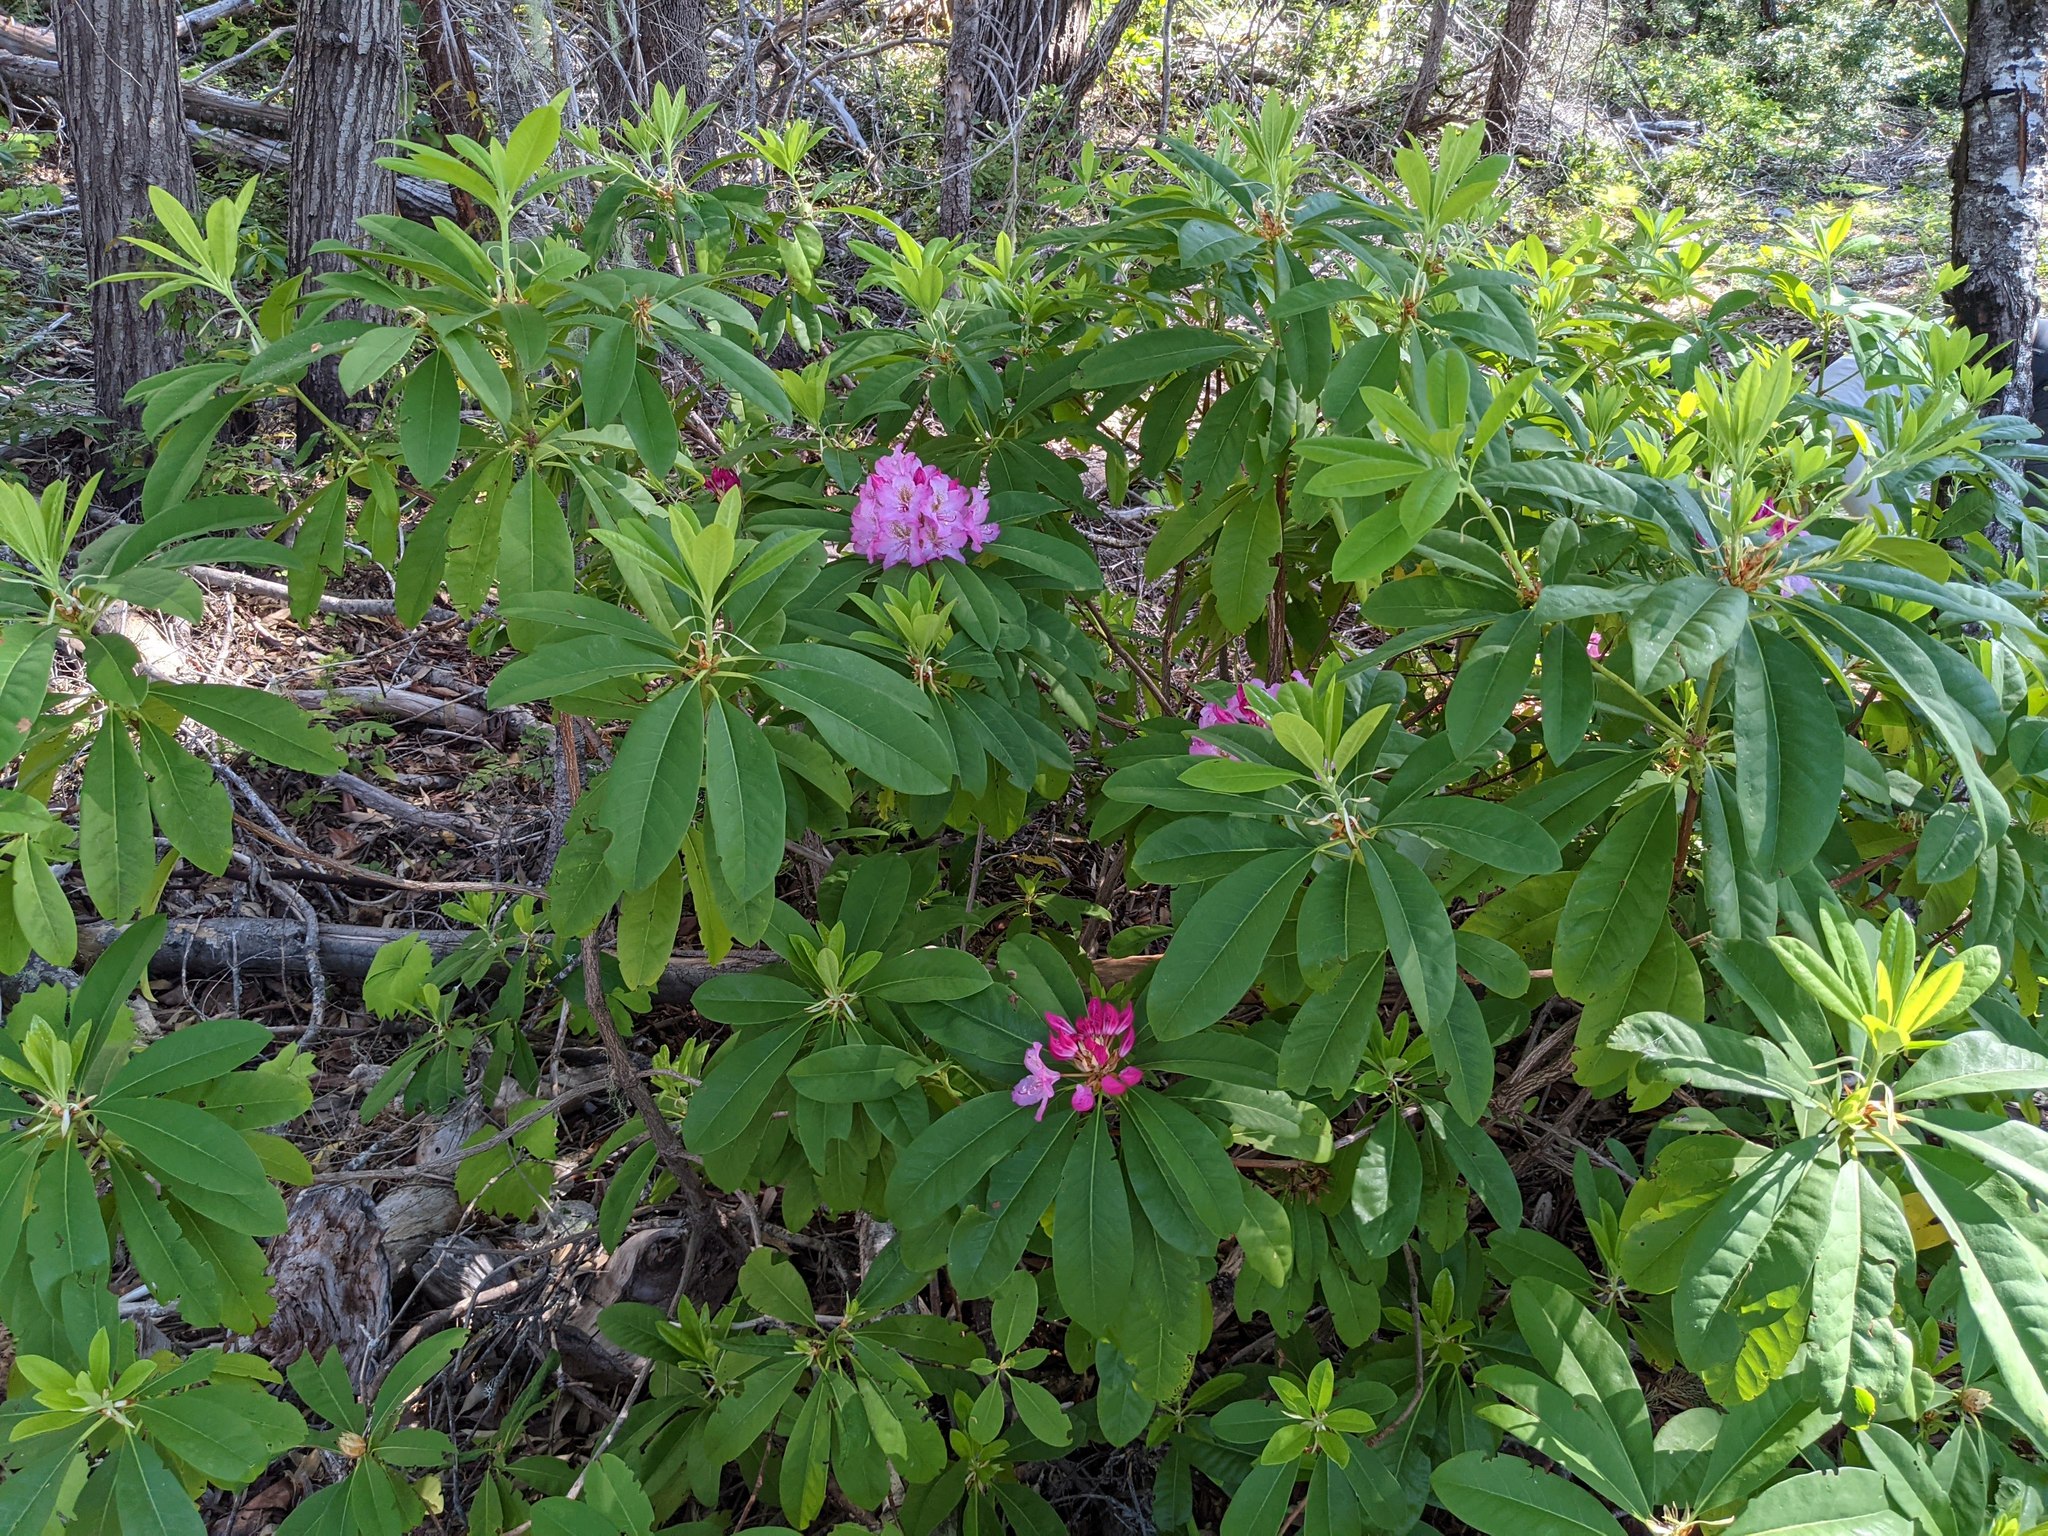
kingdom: Plantae
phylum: Tracheophyta
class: Magnoliopsida
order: Ericales
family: Ericaceae
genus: Rhododendron
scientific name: Rhododendron macrophyllum
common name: California rose bay
